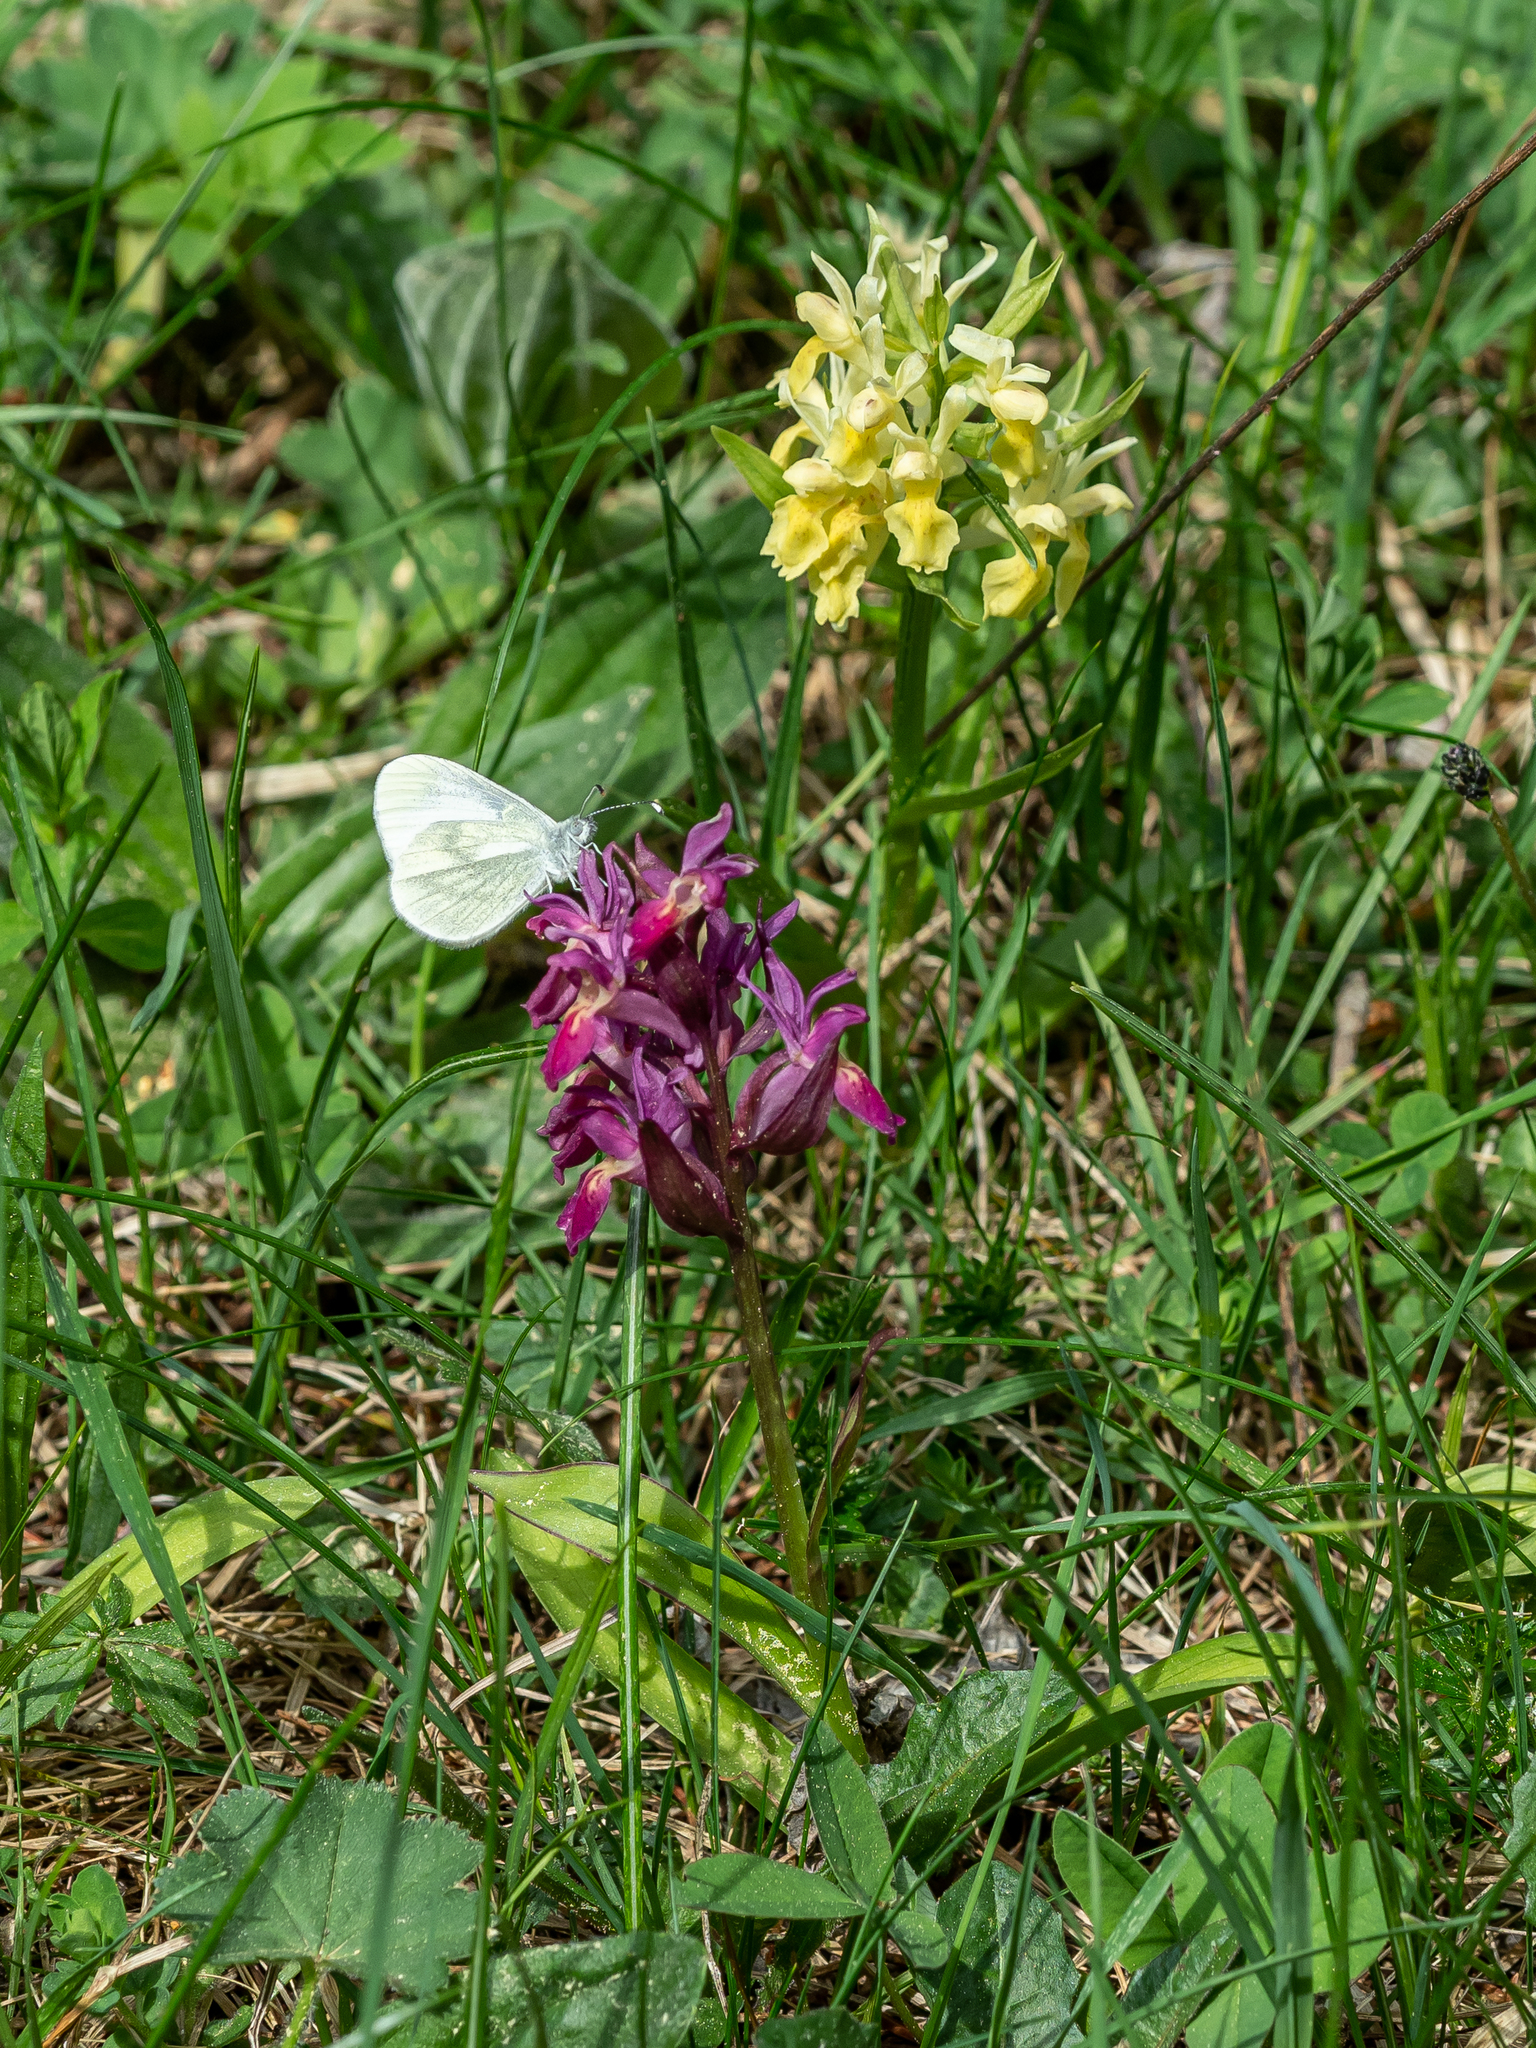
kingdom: Plantae
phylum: Tracheophyta
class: Liliopsida
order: Asparagales
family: Orchidaceae
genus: Dactylorhiza
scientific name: Dactylorhiza sambucina
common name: Elder-flowered orchid
